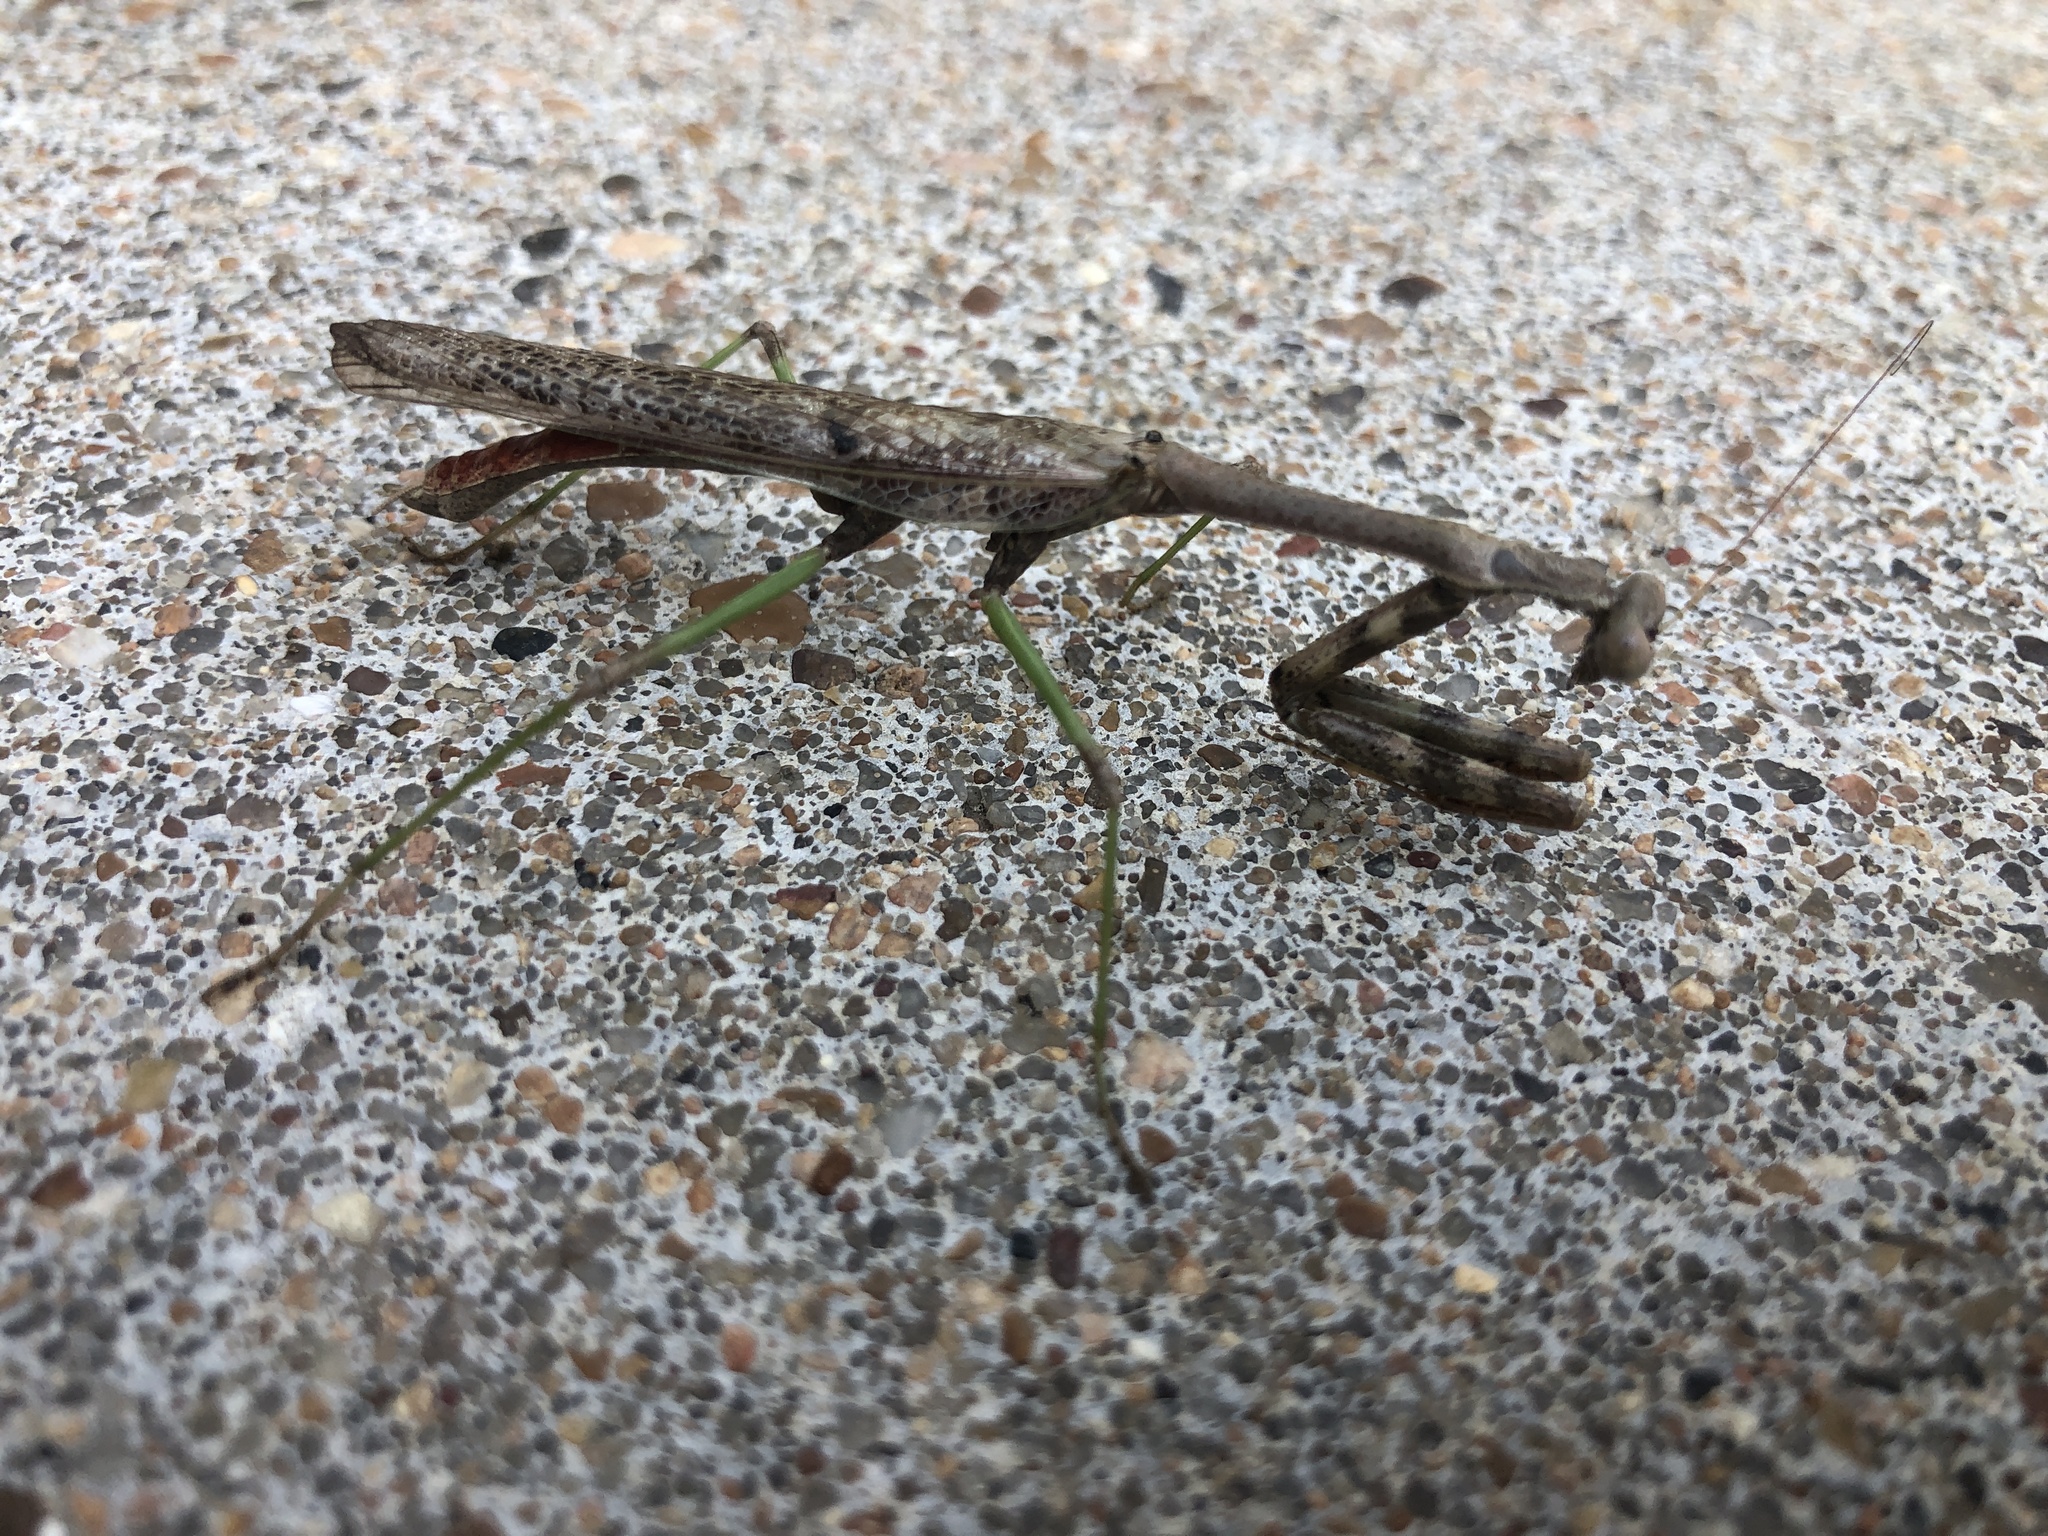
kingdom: Animalia
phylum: Arthropoda
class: Insecta
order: Mantodea
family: Mantidae
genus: Stagmomantis
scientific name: Stagmomantis carolina
